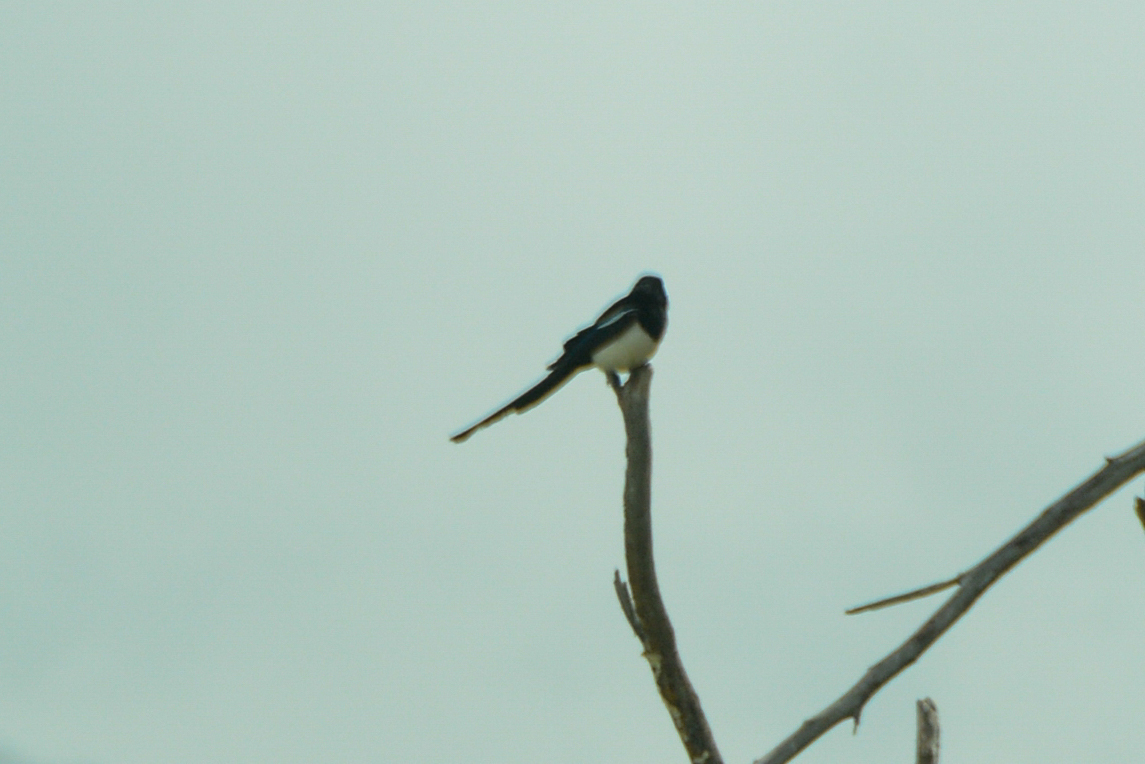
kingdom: Animalia
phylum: Chordata
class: Aves
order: Passeriformes
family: Corvidae
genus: Pica
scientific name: Pica hudsonia
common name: Black-billed magpie
